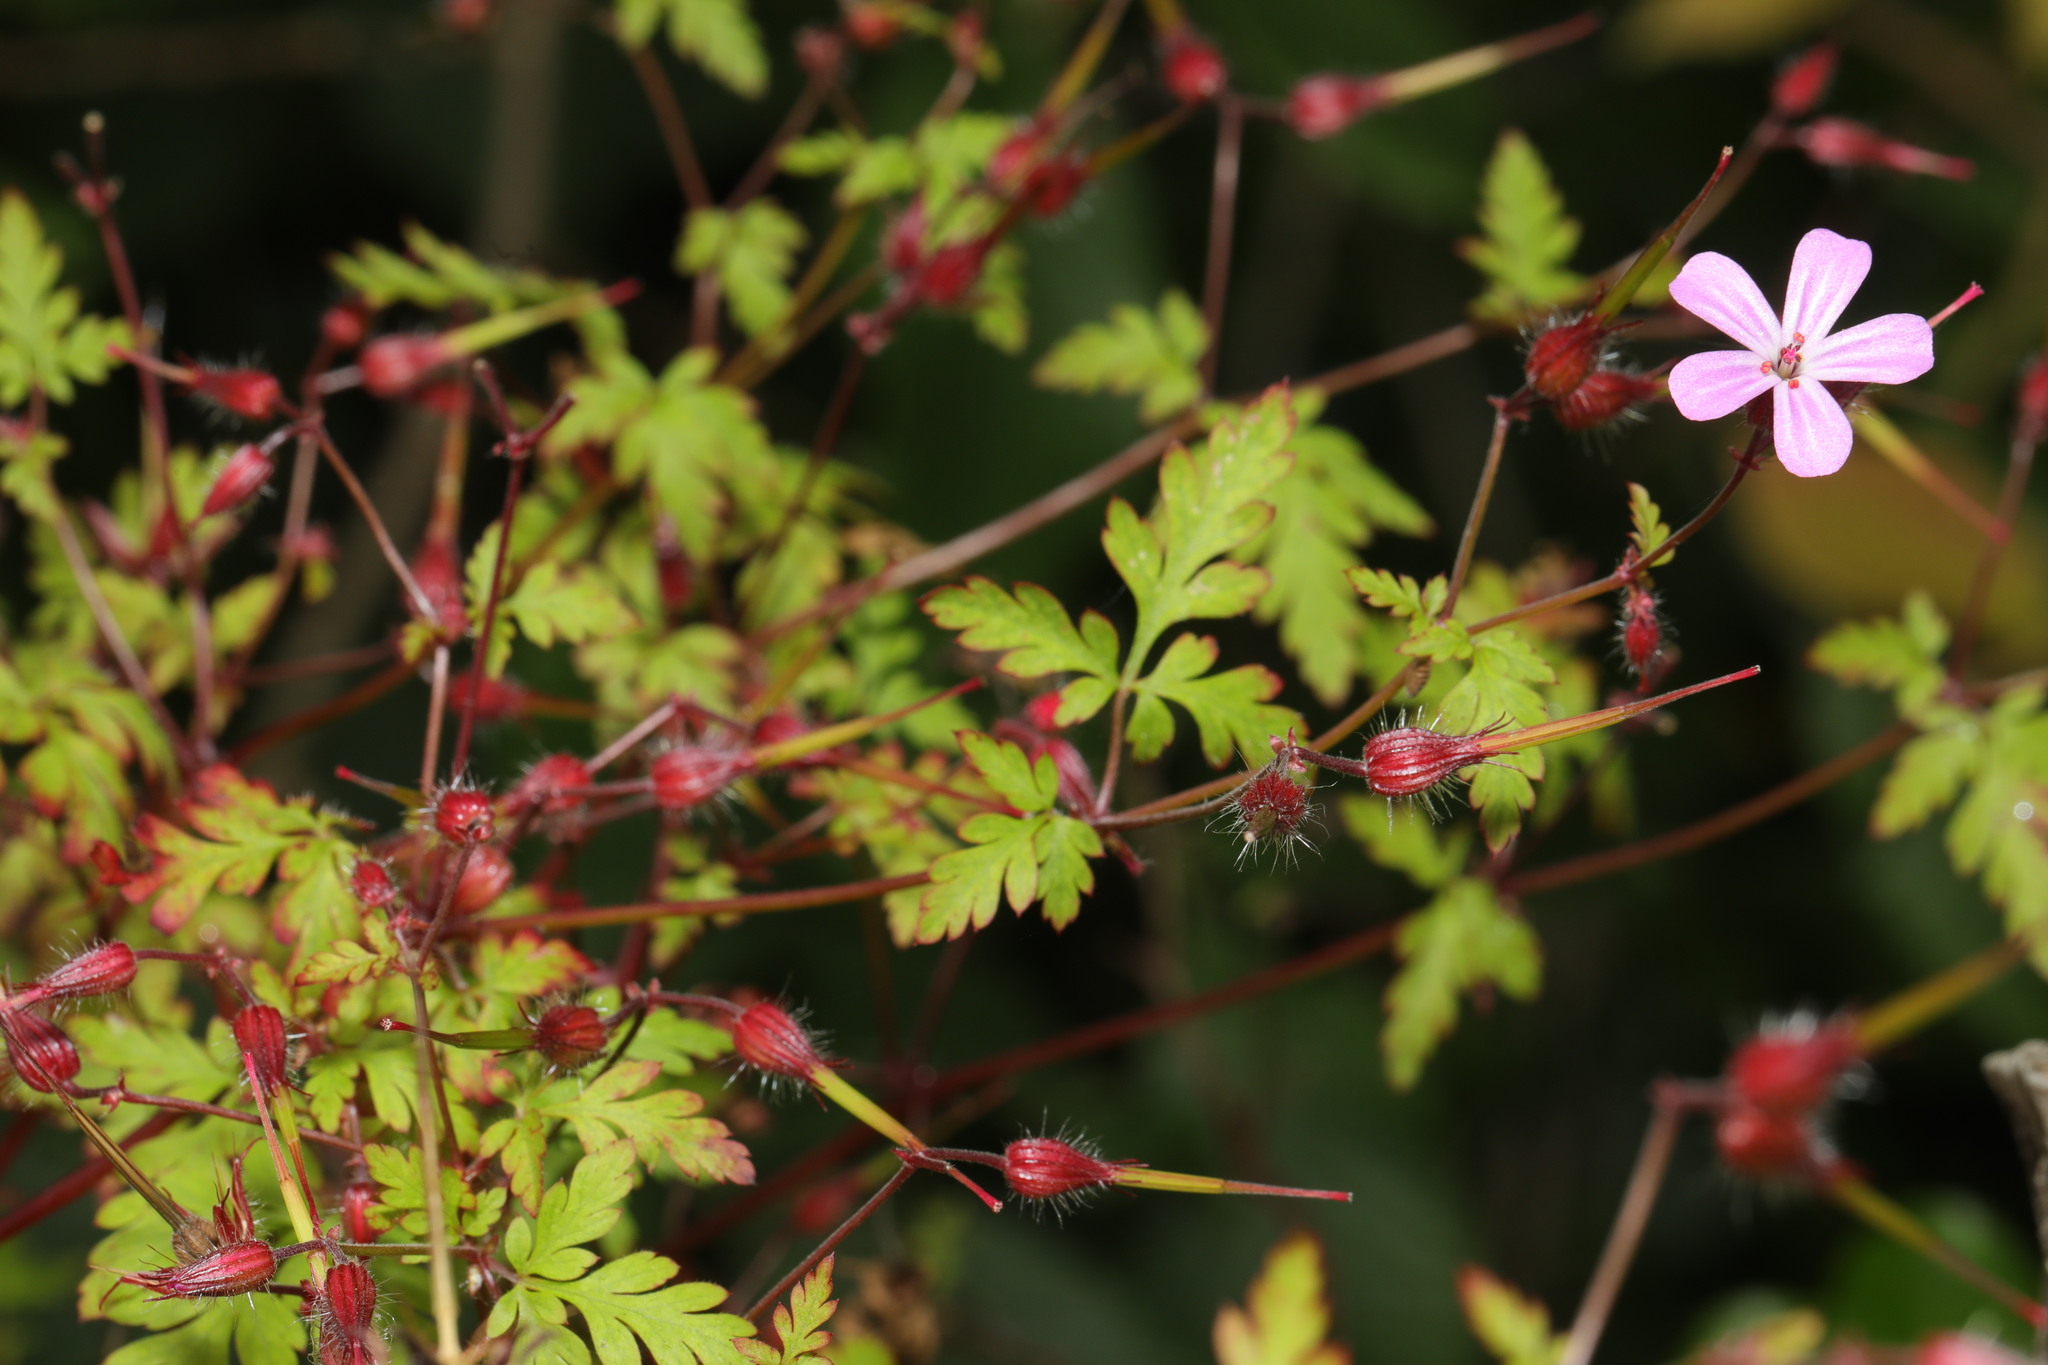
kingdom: Plantae
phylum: Tracheophyta
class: Magnoliopsida
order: Geraniales
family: Geraniaceae
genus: Geranium
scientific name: Geranium robertianum
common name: Herb-robert
